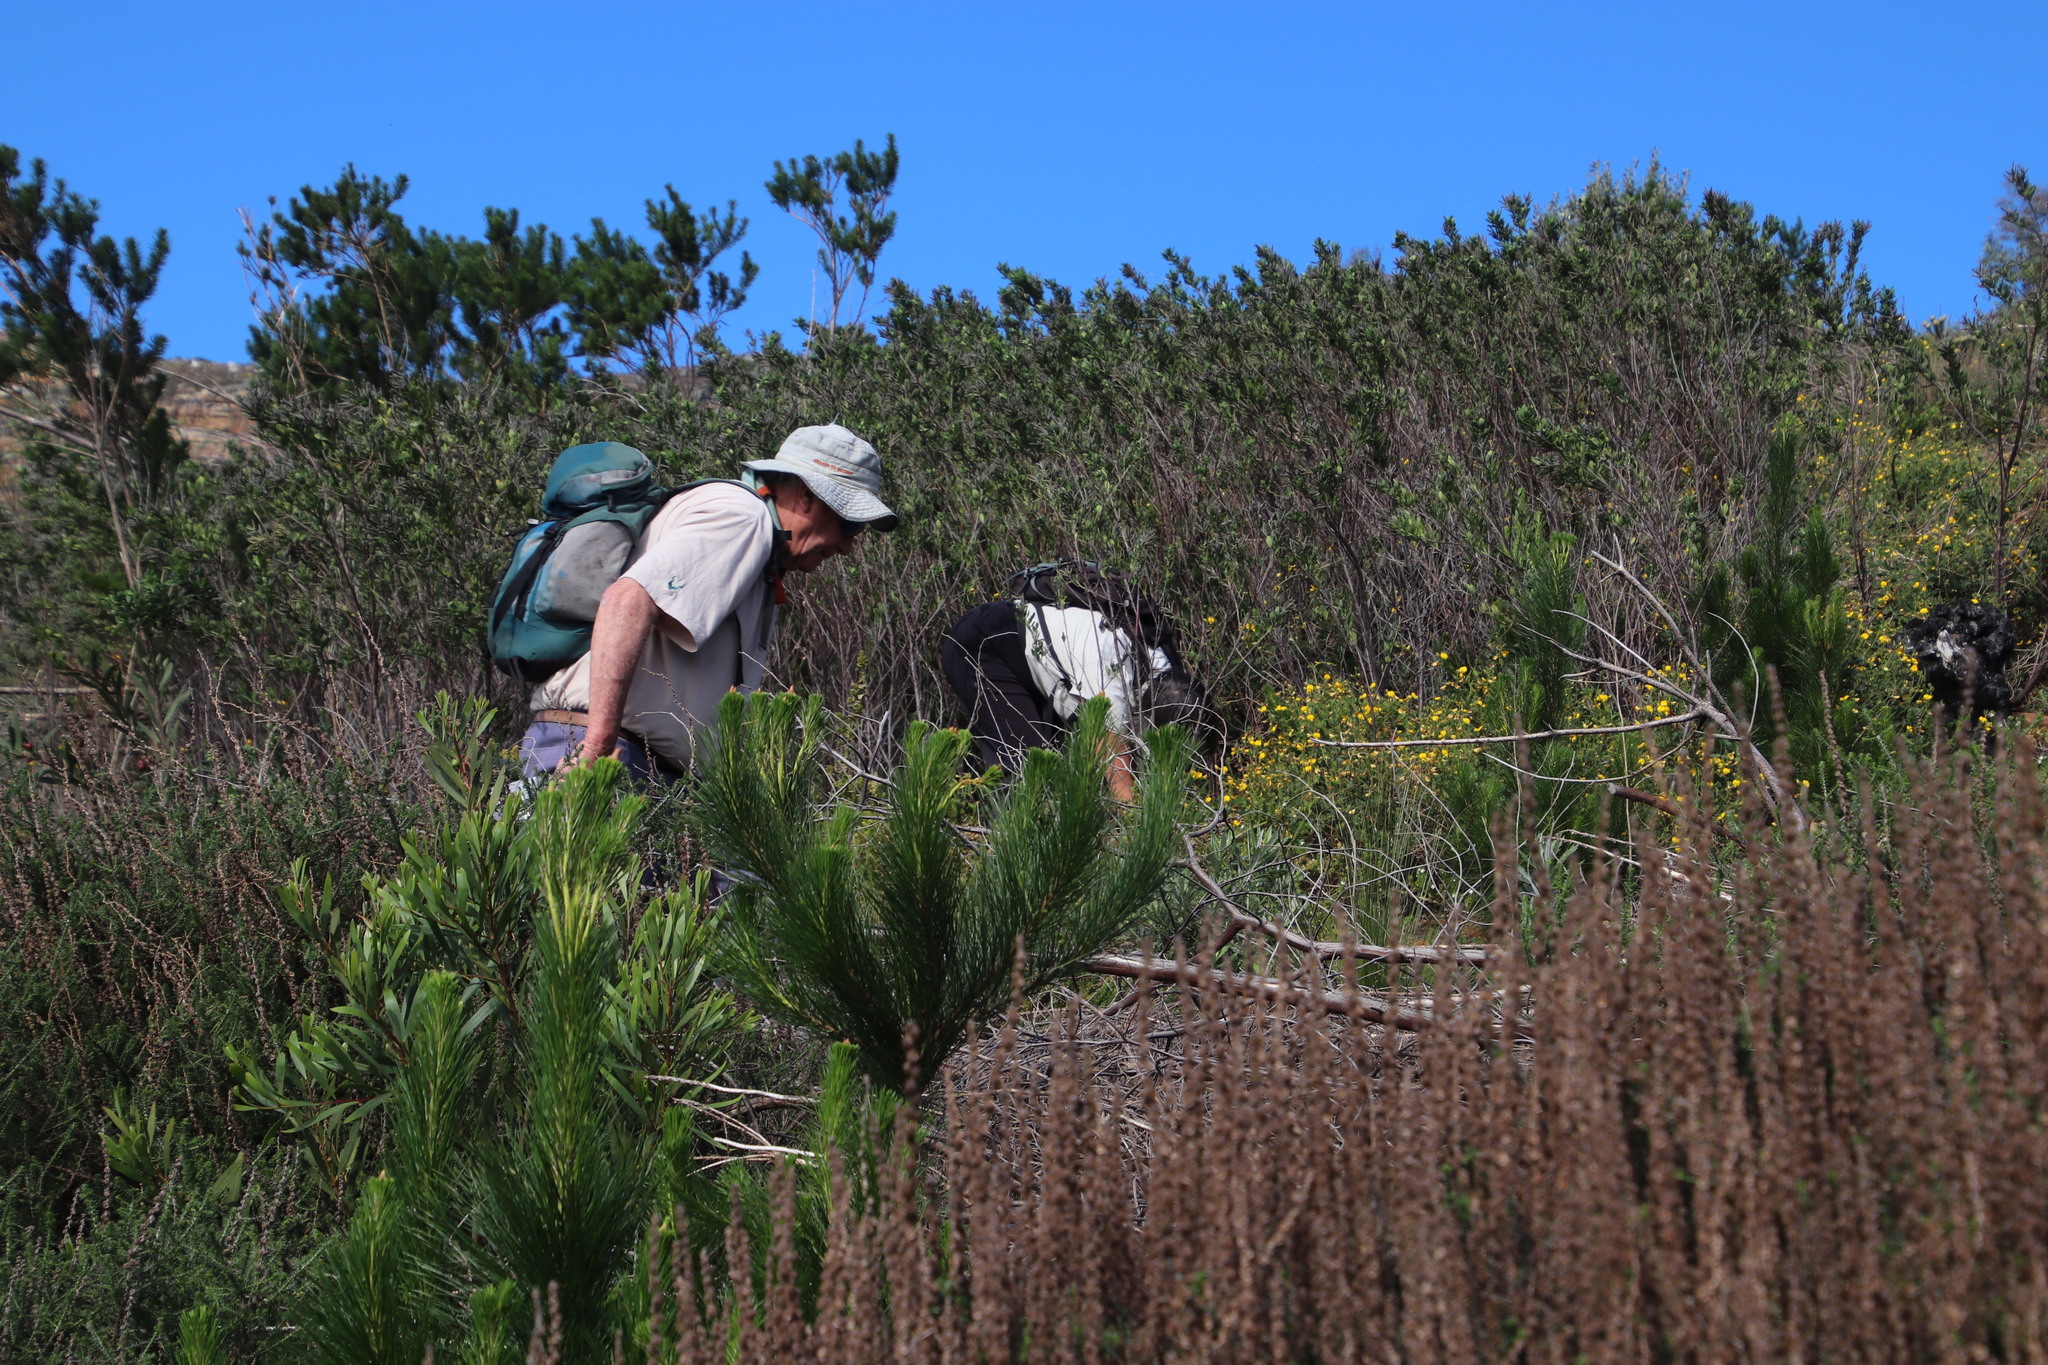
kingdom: Plantae
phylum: Tracheophyta
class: Pinopsida
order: Pinales
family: Pinaceae
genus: Pinus
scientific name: Pinus radiata
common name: Monterey pine
